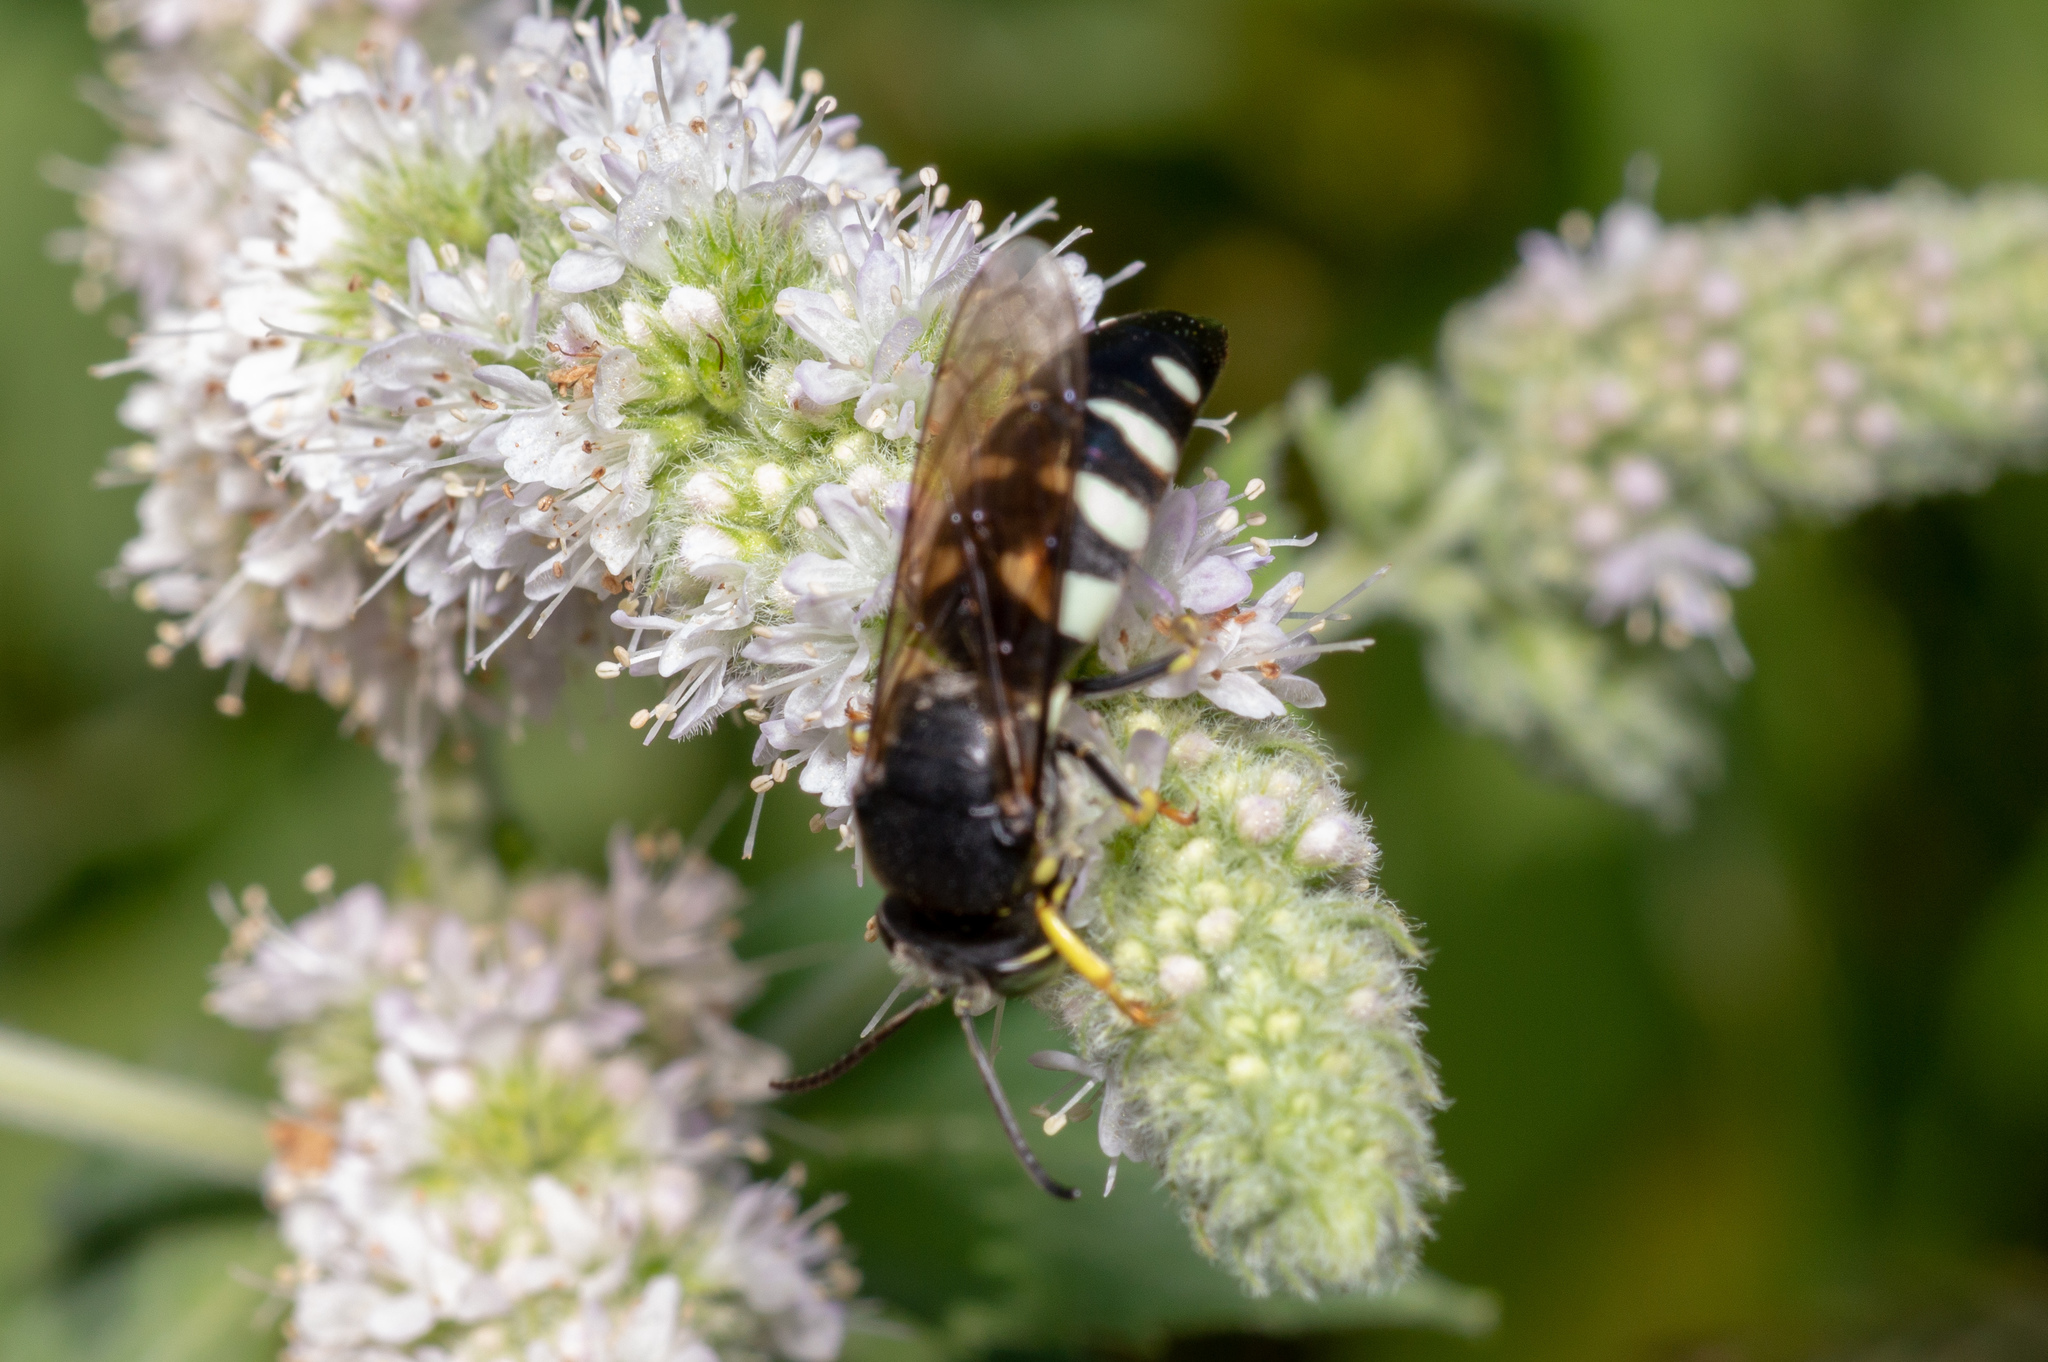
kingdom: Animalia
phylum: Arthropoda
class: Insecta
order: Hymenoptera
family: Crabronidae
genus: Bicyrtes
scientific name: Bicyrtes quadrifasciatus
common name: Four-banded stink bug hunter wasp
